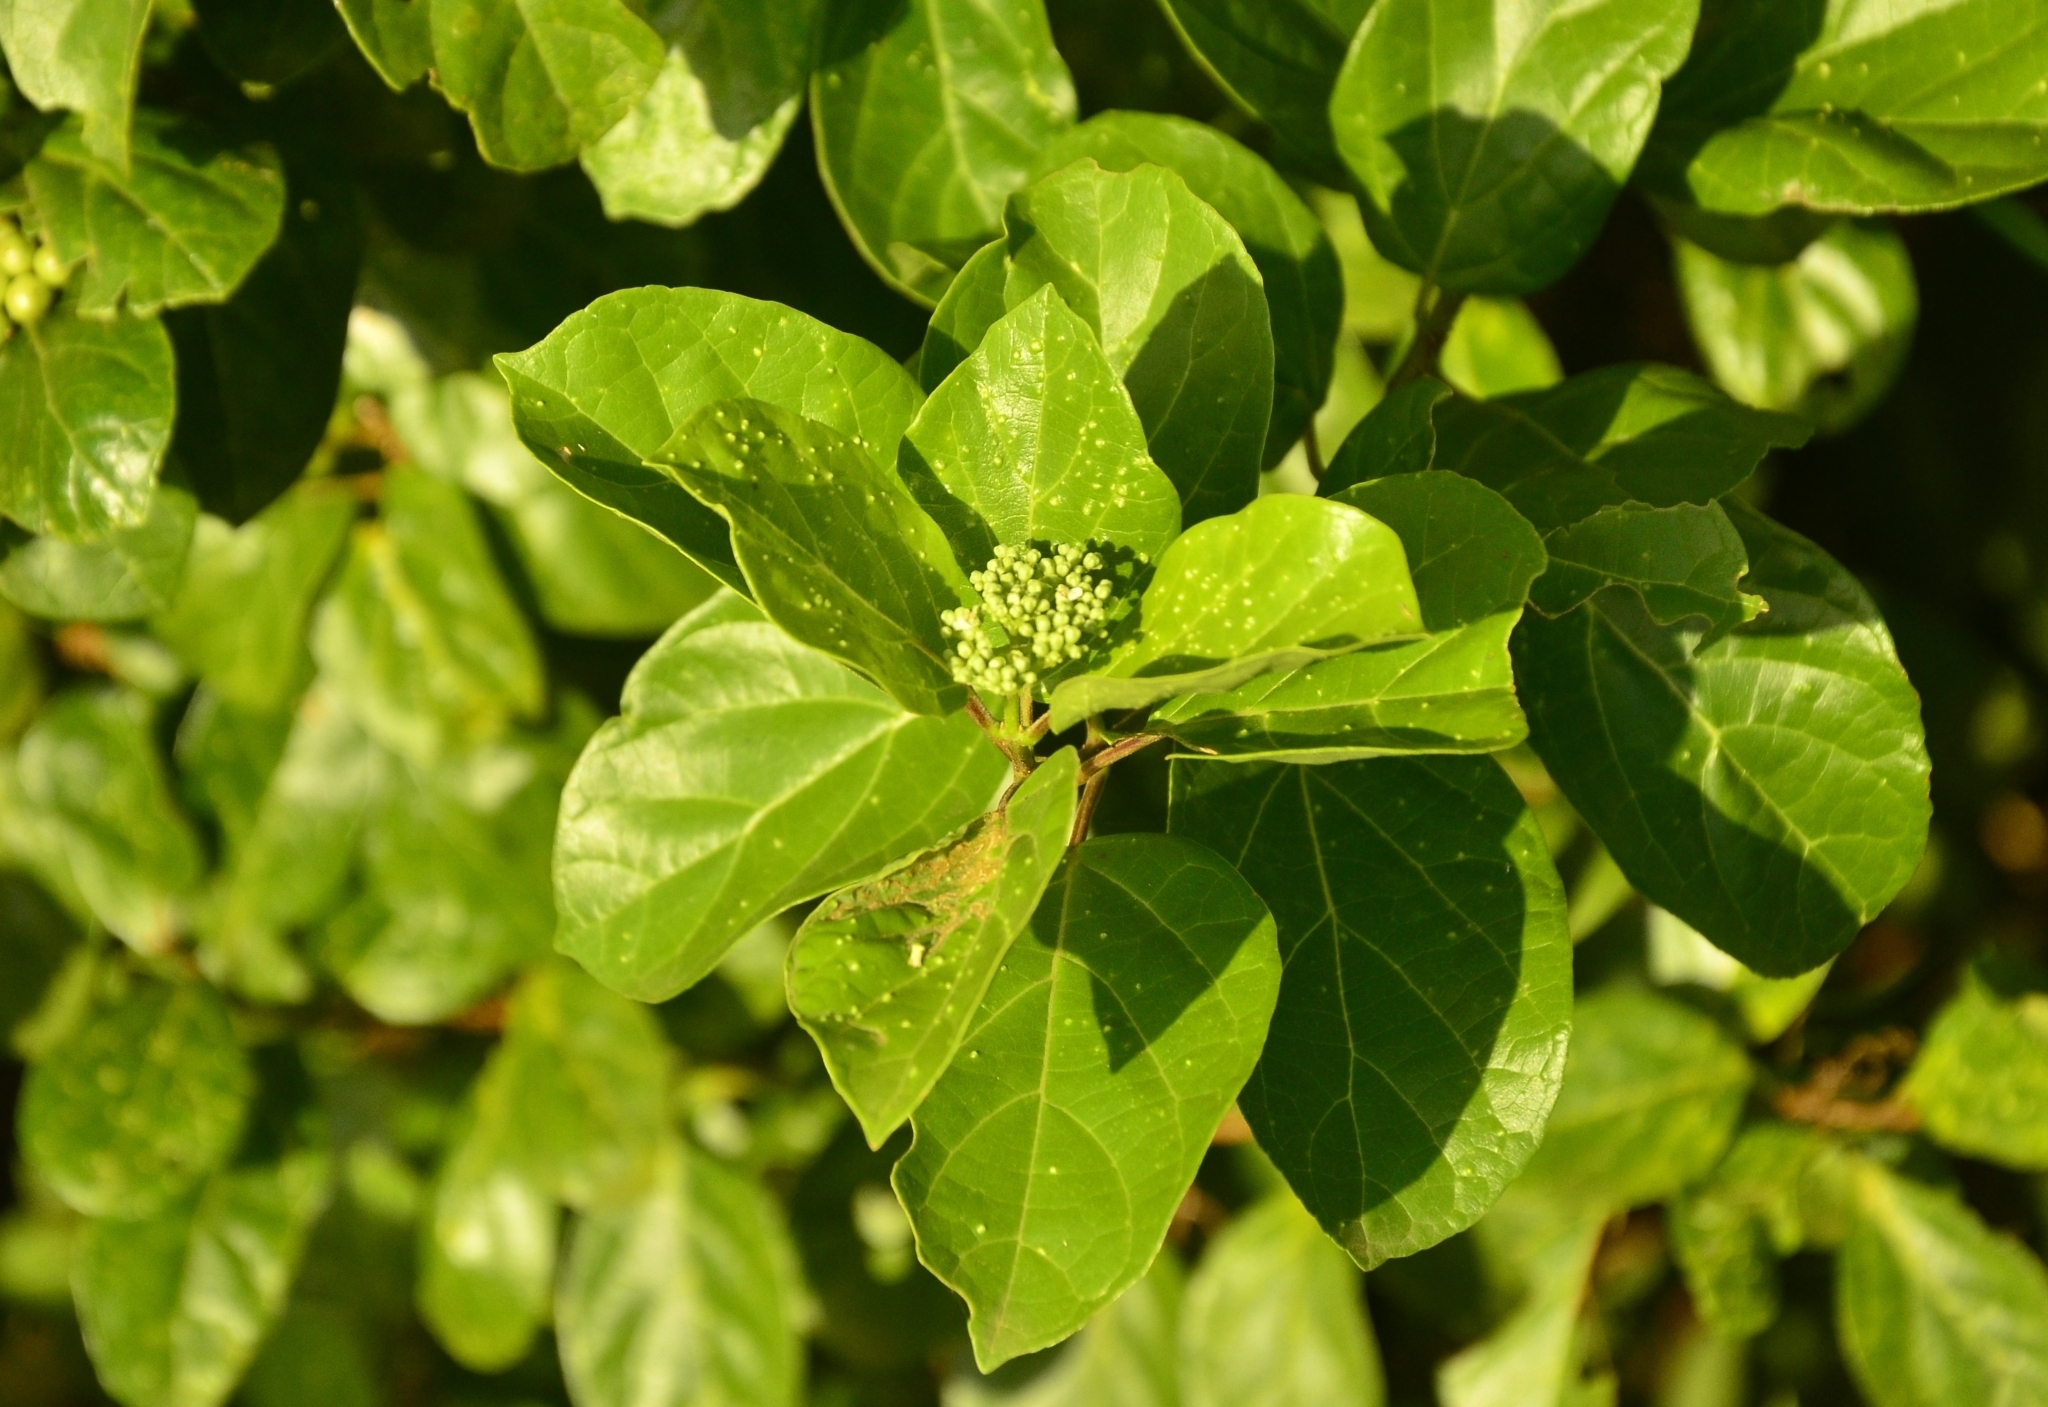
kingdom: Plantae
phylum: Tracheophyta
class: Magnoliopsida
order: Lamiales
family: Lamiaceae
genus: Premna
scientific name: Premna serratifolia
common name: Bastard guelder
